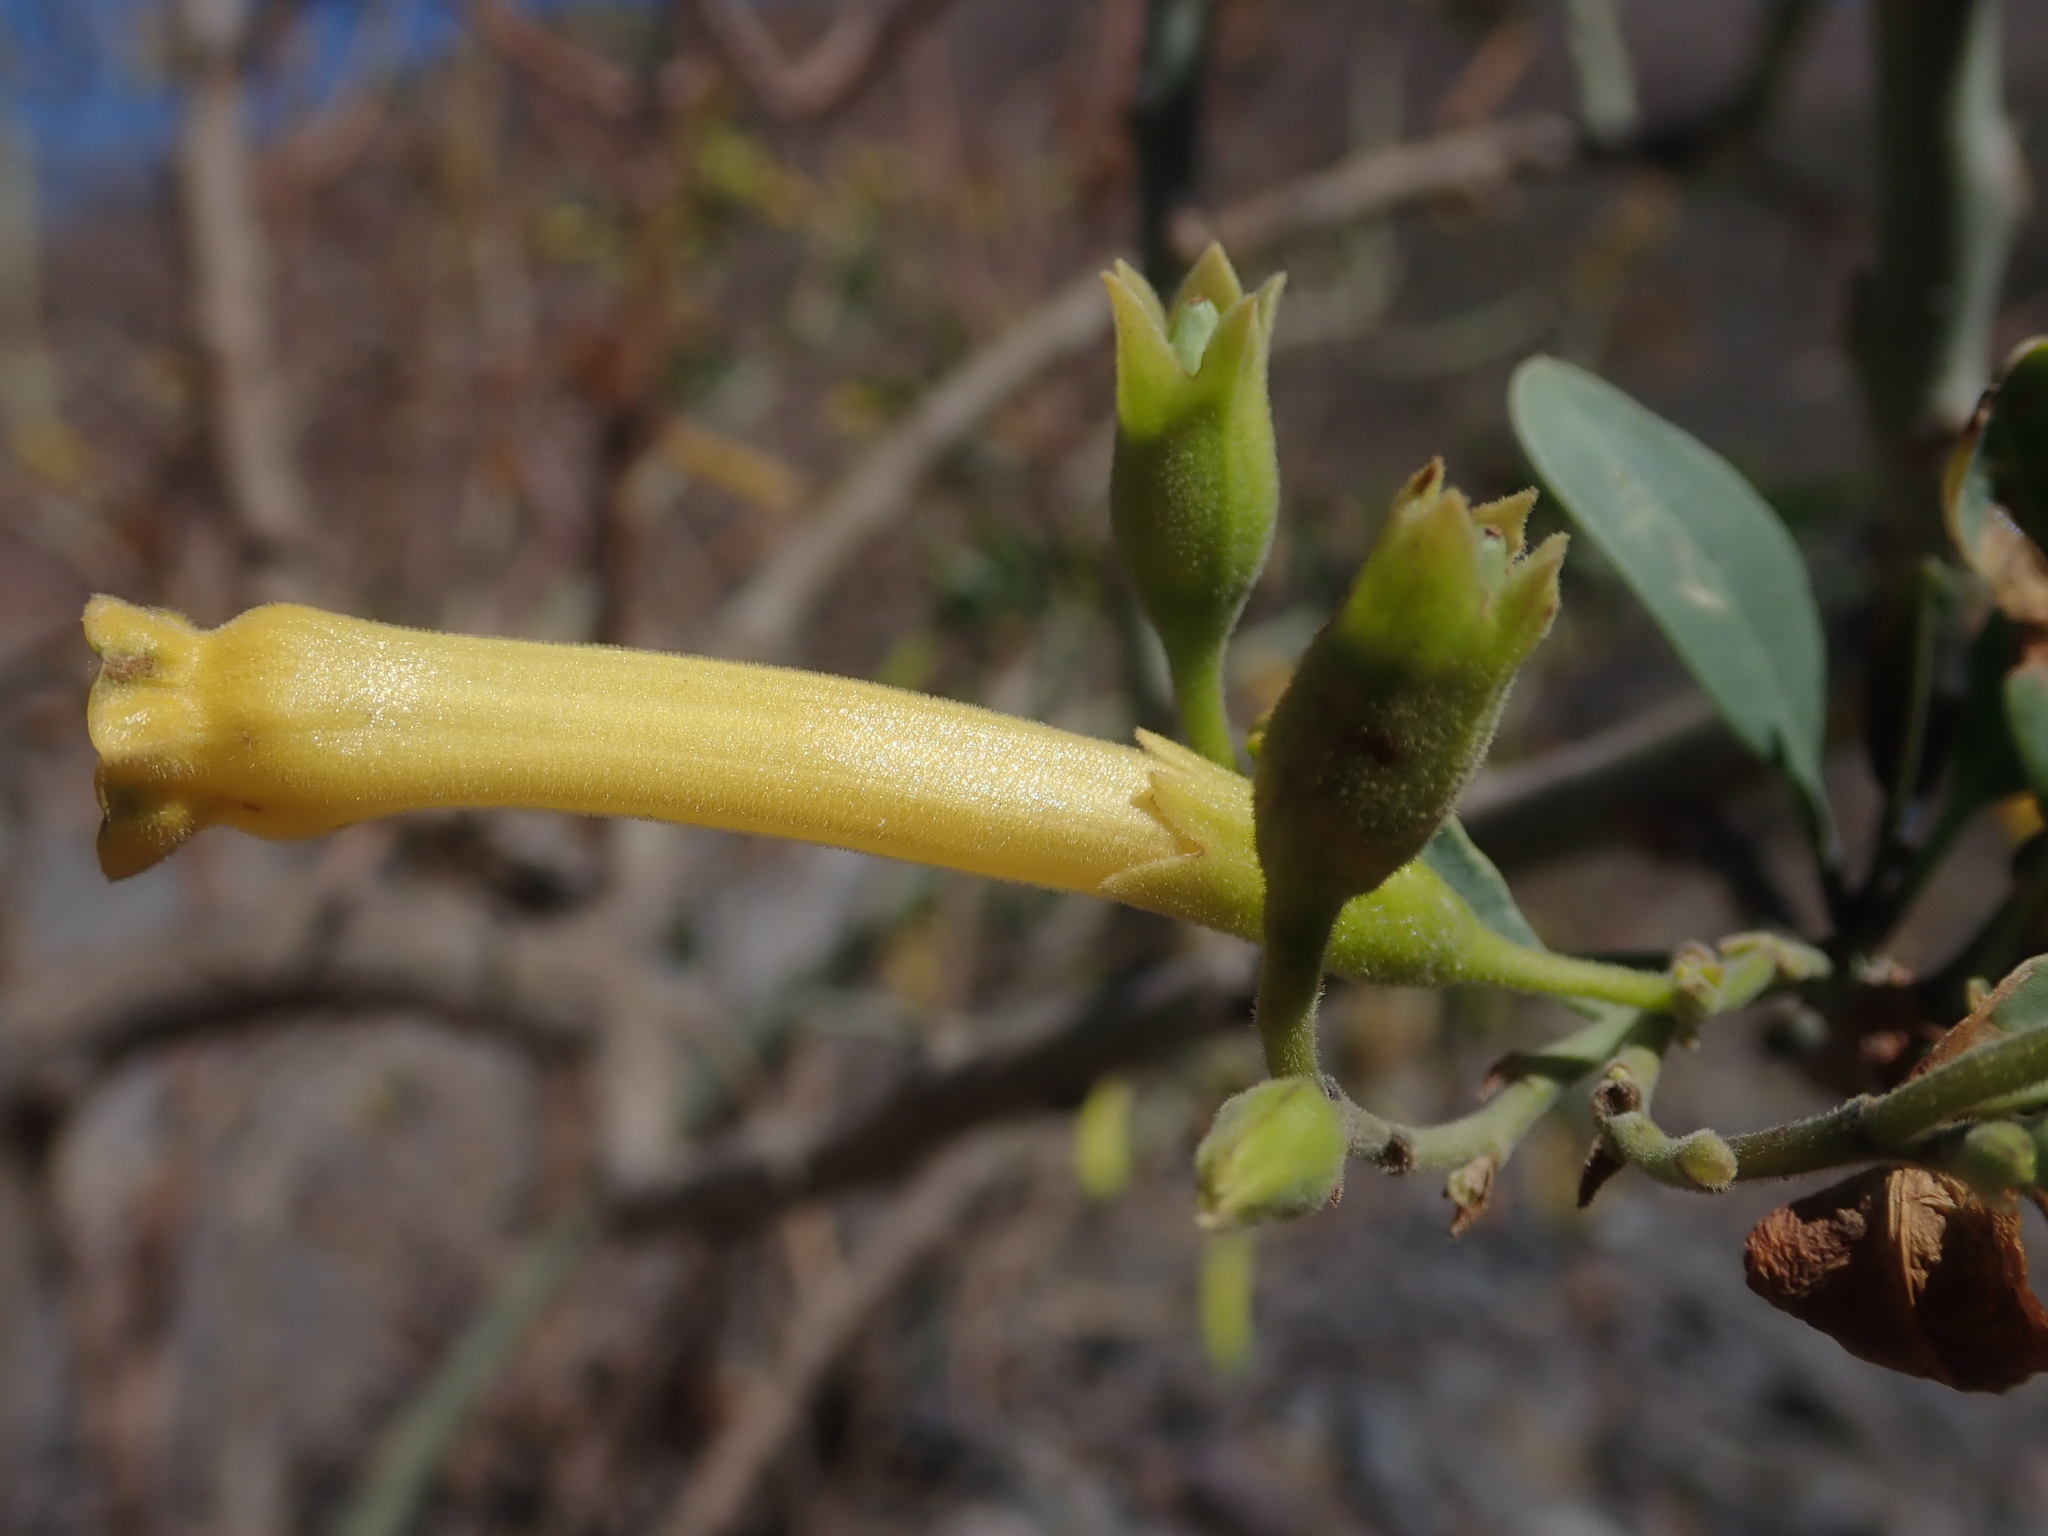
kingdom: Plantae
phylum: Tracheophyta
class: Magnoliopsida
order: Solanales
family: Solanaceae
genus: Nicotiana
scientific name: Nicotiana glauca
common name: Tree tobacco
